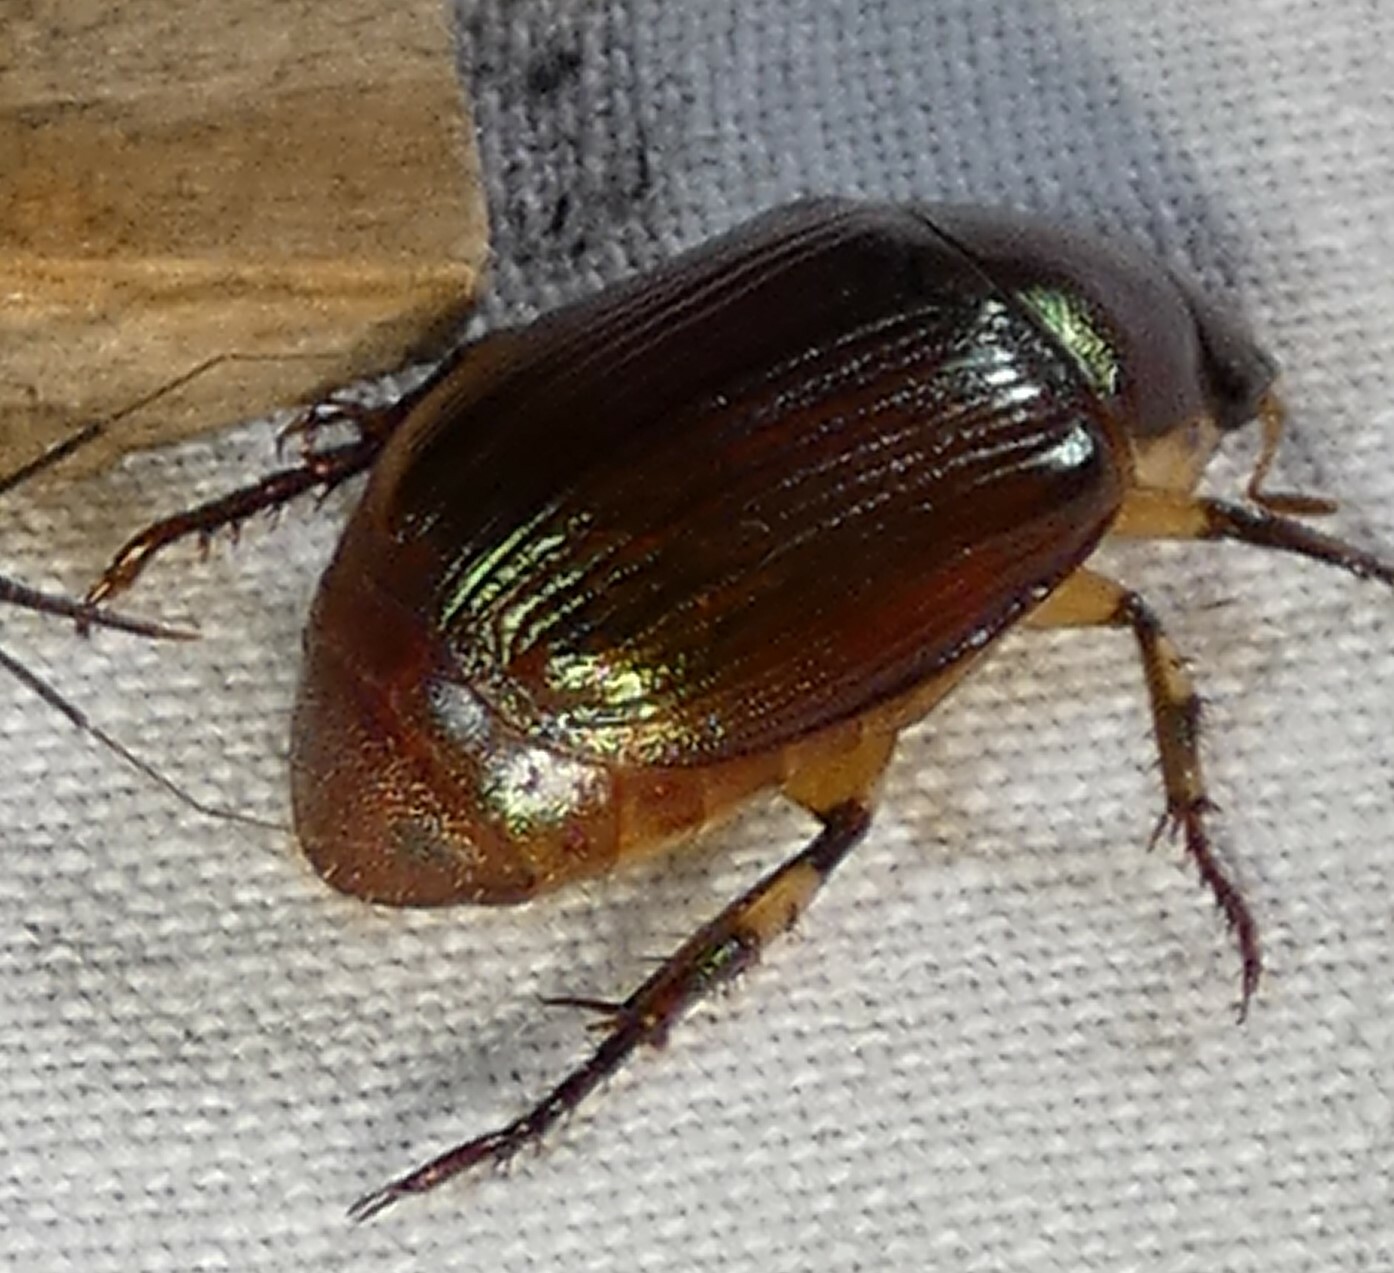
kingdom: Animalia
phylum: Arthropoda
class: Insecta
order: Coleoptera
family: Scarabaeidae
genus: Callistethus
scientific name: Callistethus marginatus
